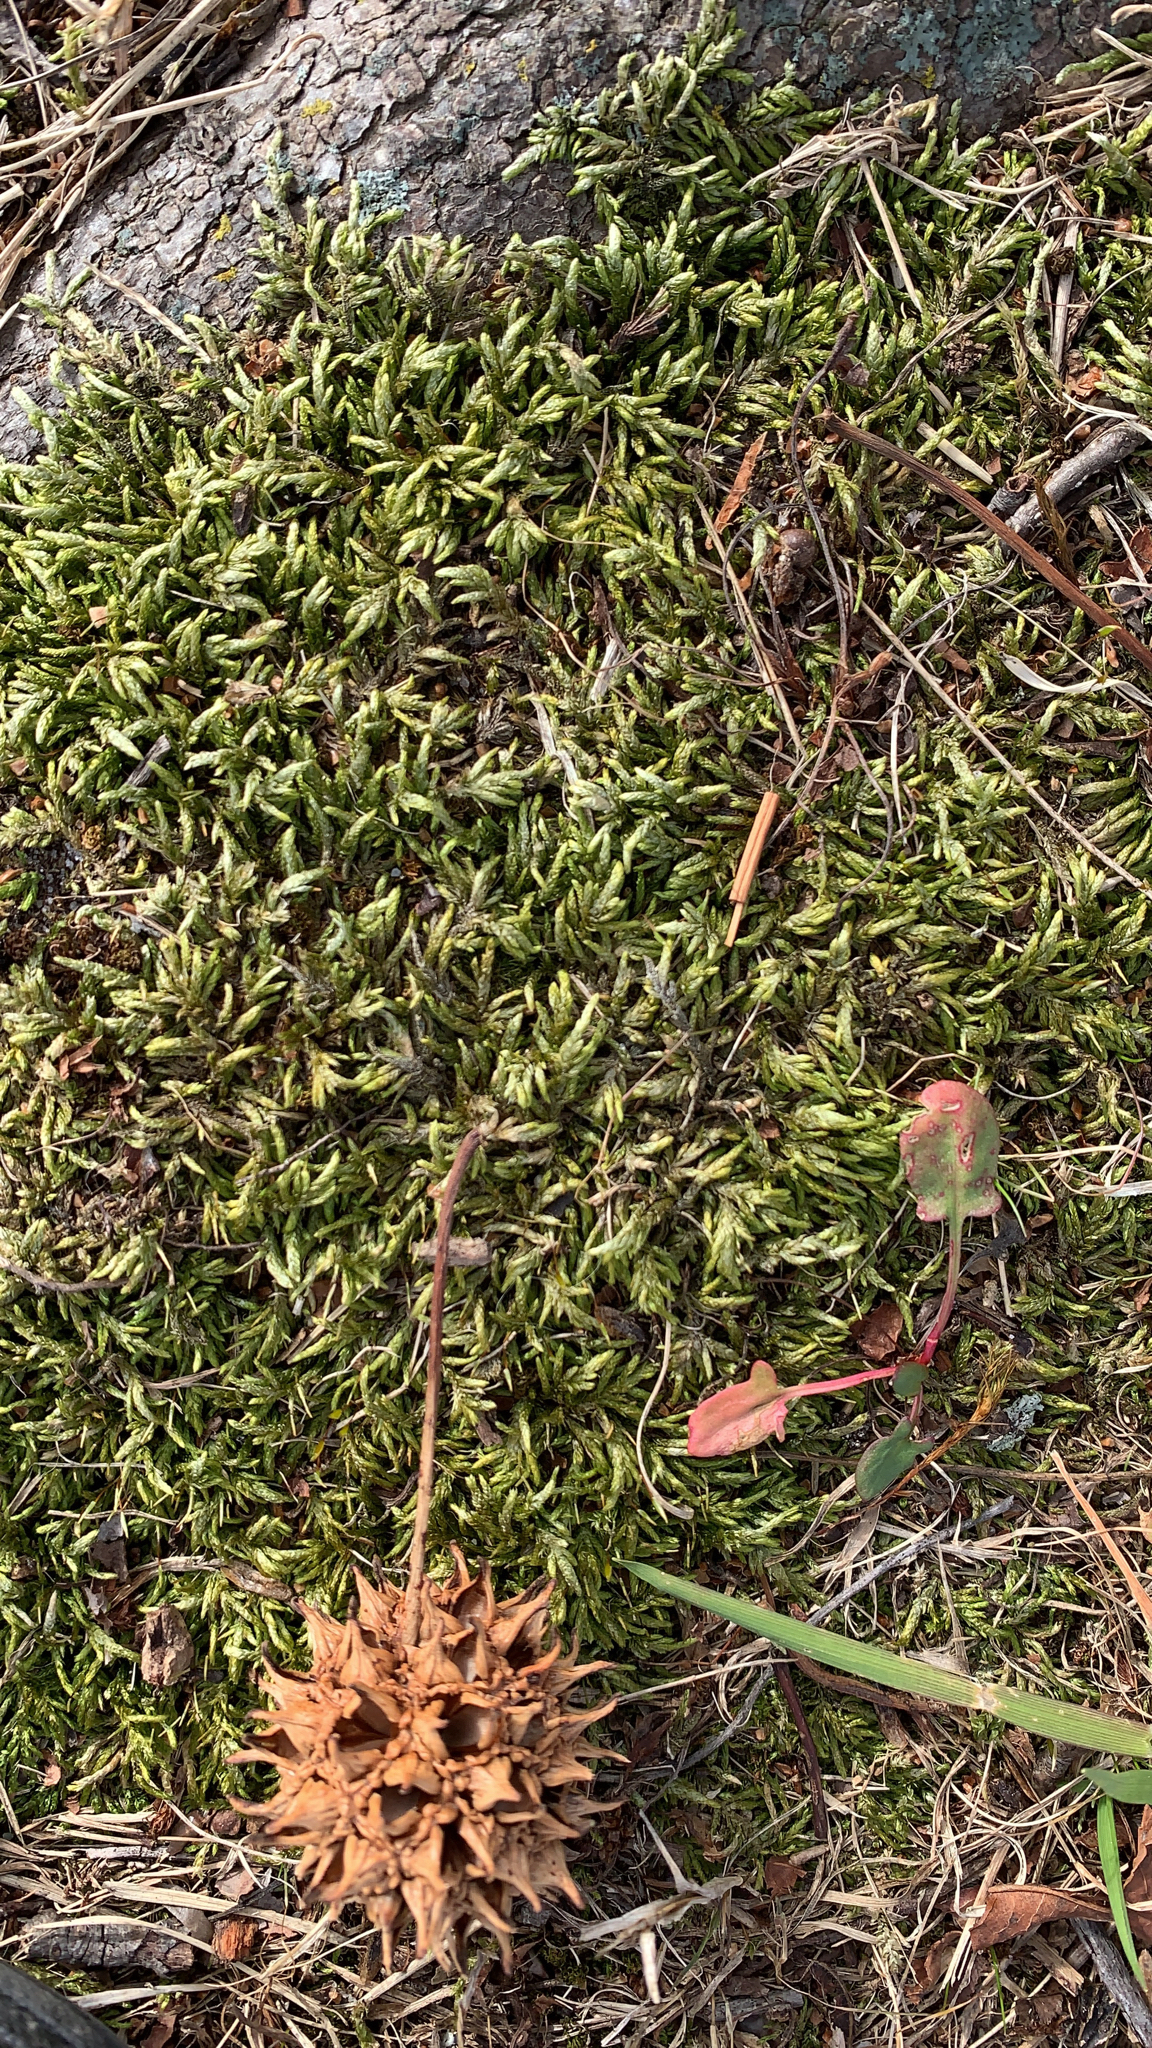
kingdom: Plantae
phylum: Bryophyta
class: Bryopsida
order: Hypnales
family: Entodontaceae
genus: Entodon
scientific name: Entodon seductrix
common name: Round-stemmed entodon moss
